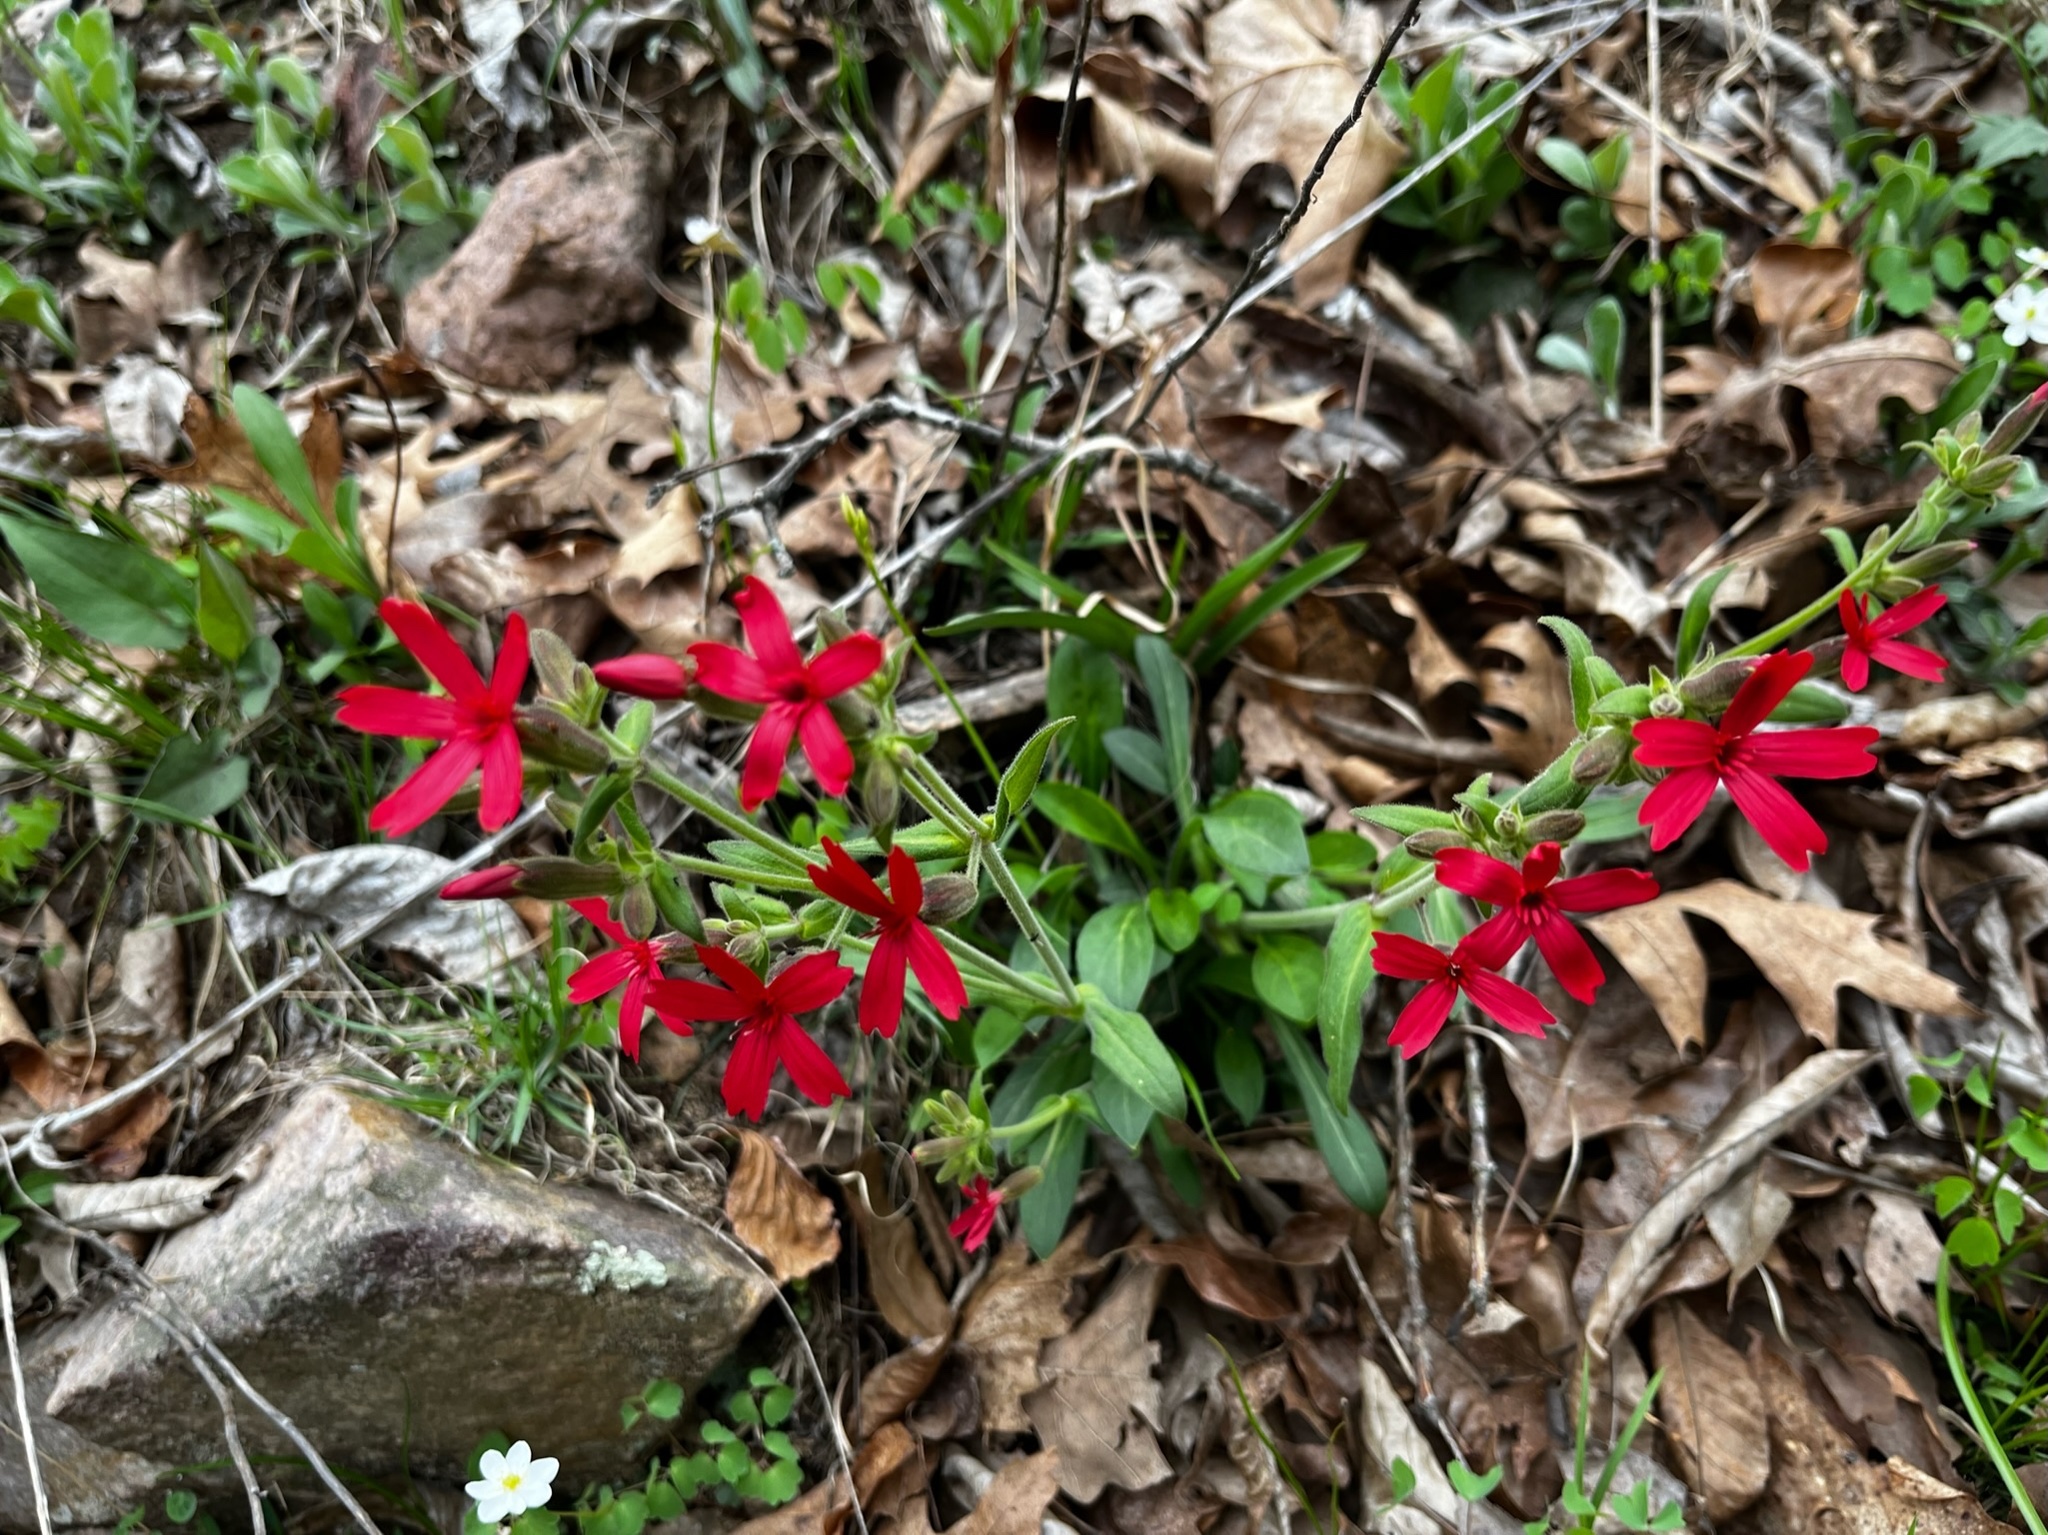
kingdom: Plantae
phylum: Tracheophyta
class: Magnoliopsida
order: Caryophyllales
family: Caryophyllaceae
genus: Silene
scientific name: Silene virginica
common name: Fire-pink
